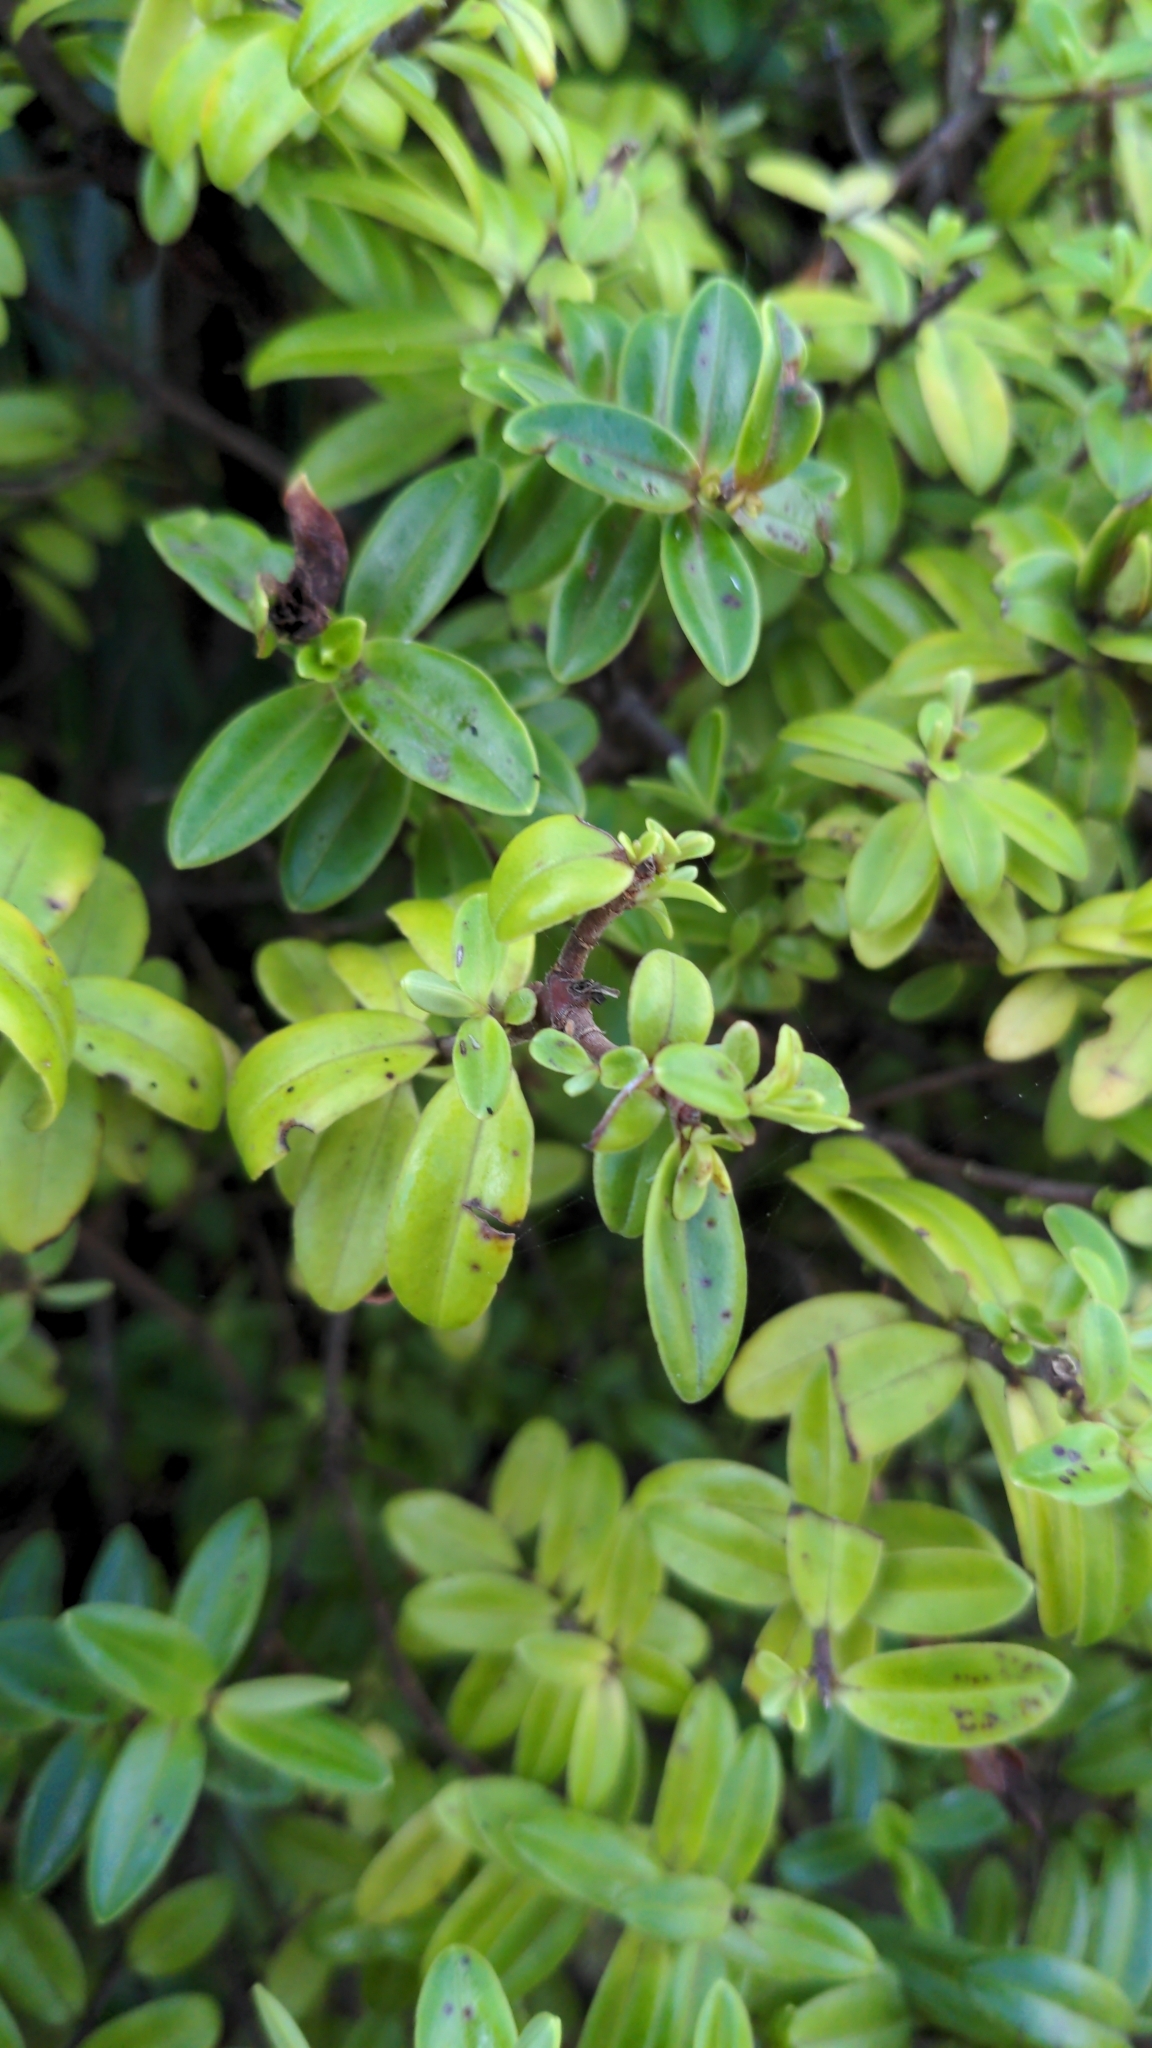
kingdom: Plantae
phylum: Tracheophyta
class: Magnoliopsida
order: Lamiales
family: Plantaginaceae
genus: Veronica
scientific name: Veronica elliptica
